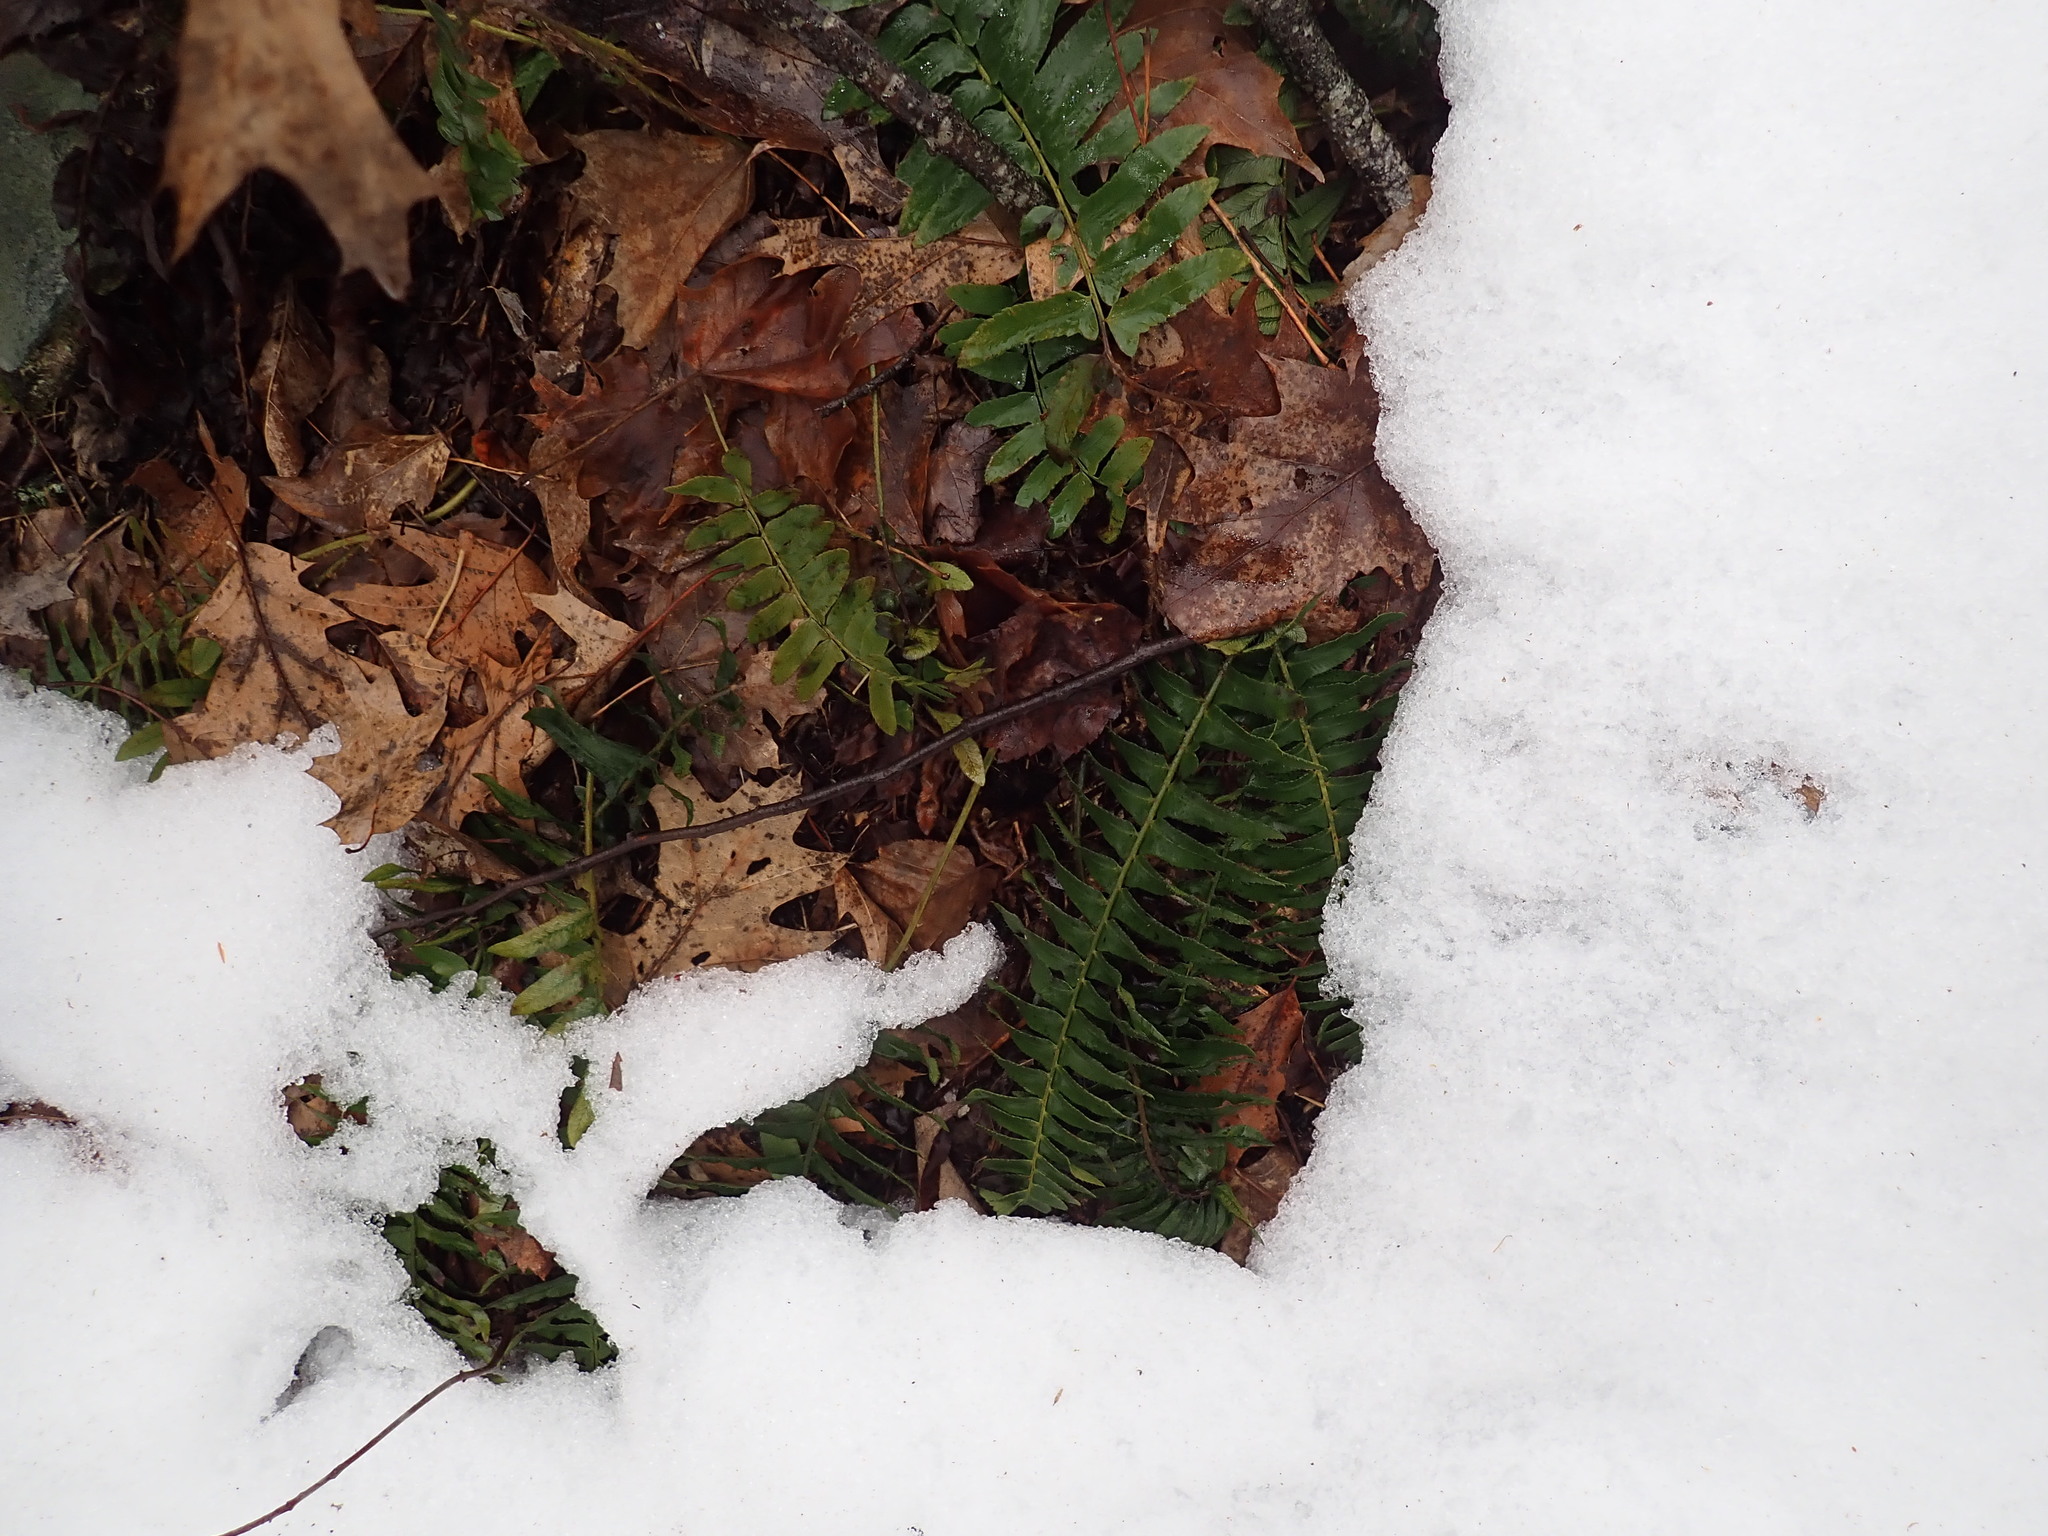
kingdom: Plantae
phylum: Tracheophyta
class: Polypodiopsida
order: Polypodiales
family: Dryopteridaceae
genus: Polystichum
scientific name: Polystichum acrostichoides
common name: Christmas fern
